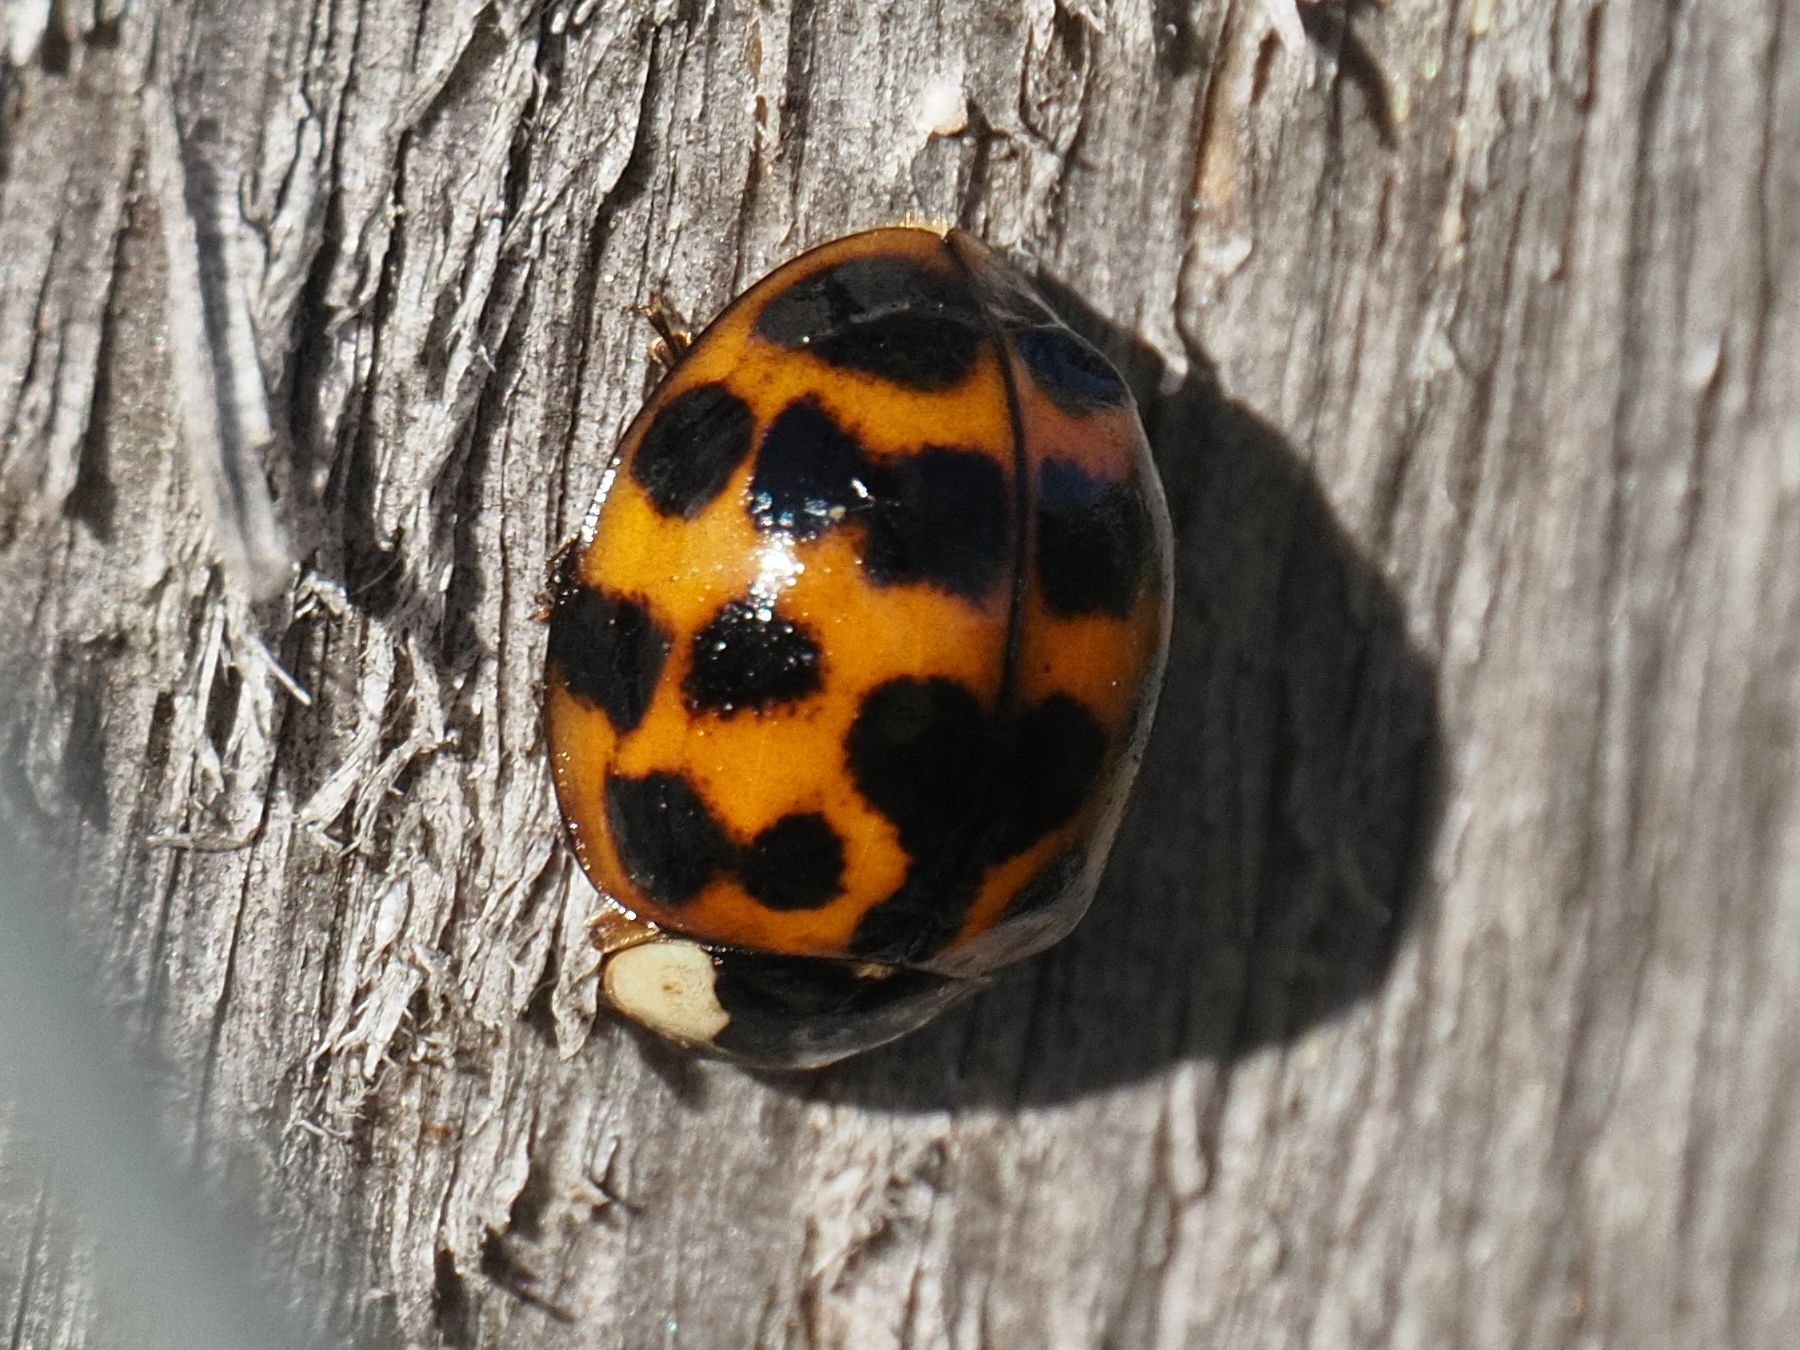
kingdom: Animalia
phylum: Arthropoda
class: Insecta
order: Coleoptera
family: Coccinellidae
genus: Harmonia
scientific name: Harmonia axyridis
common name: Harlequin ladybird
